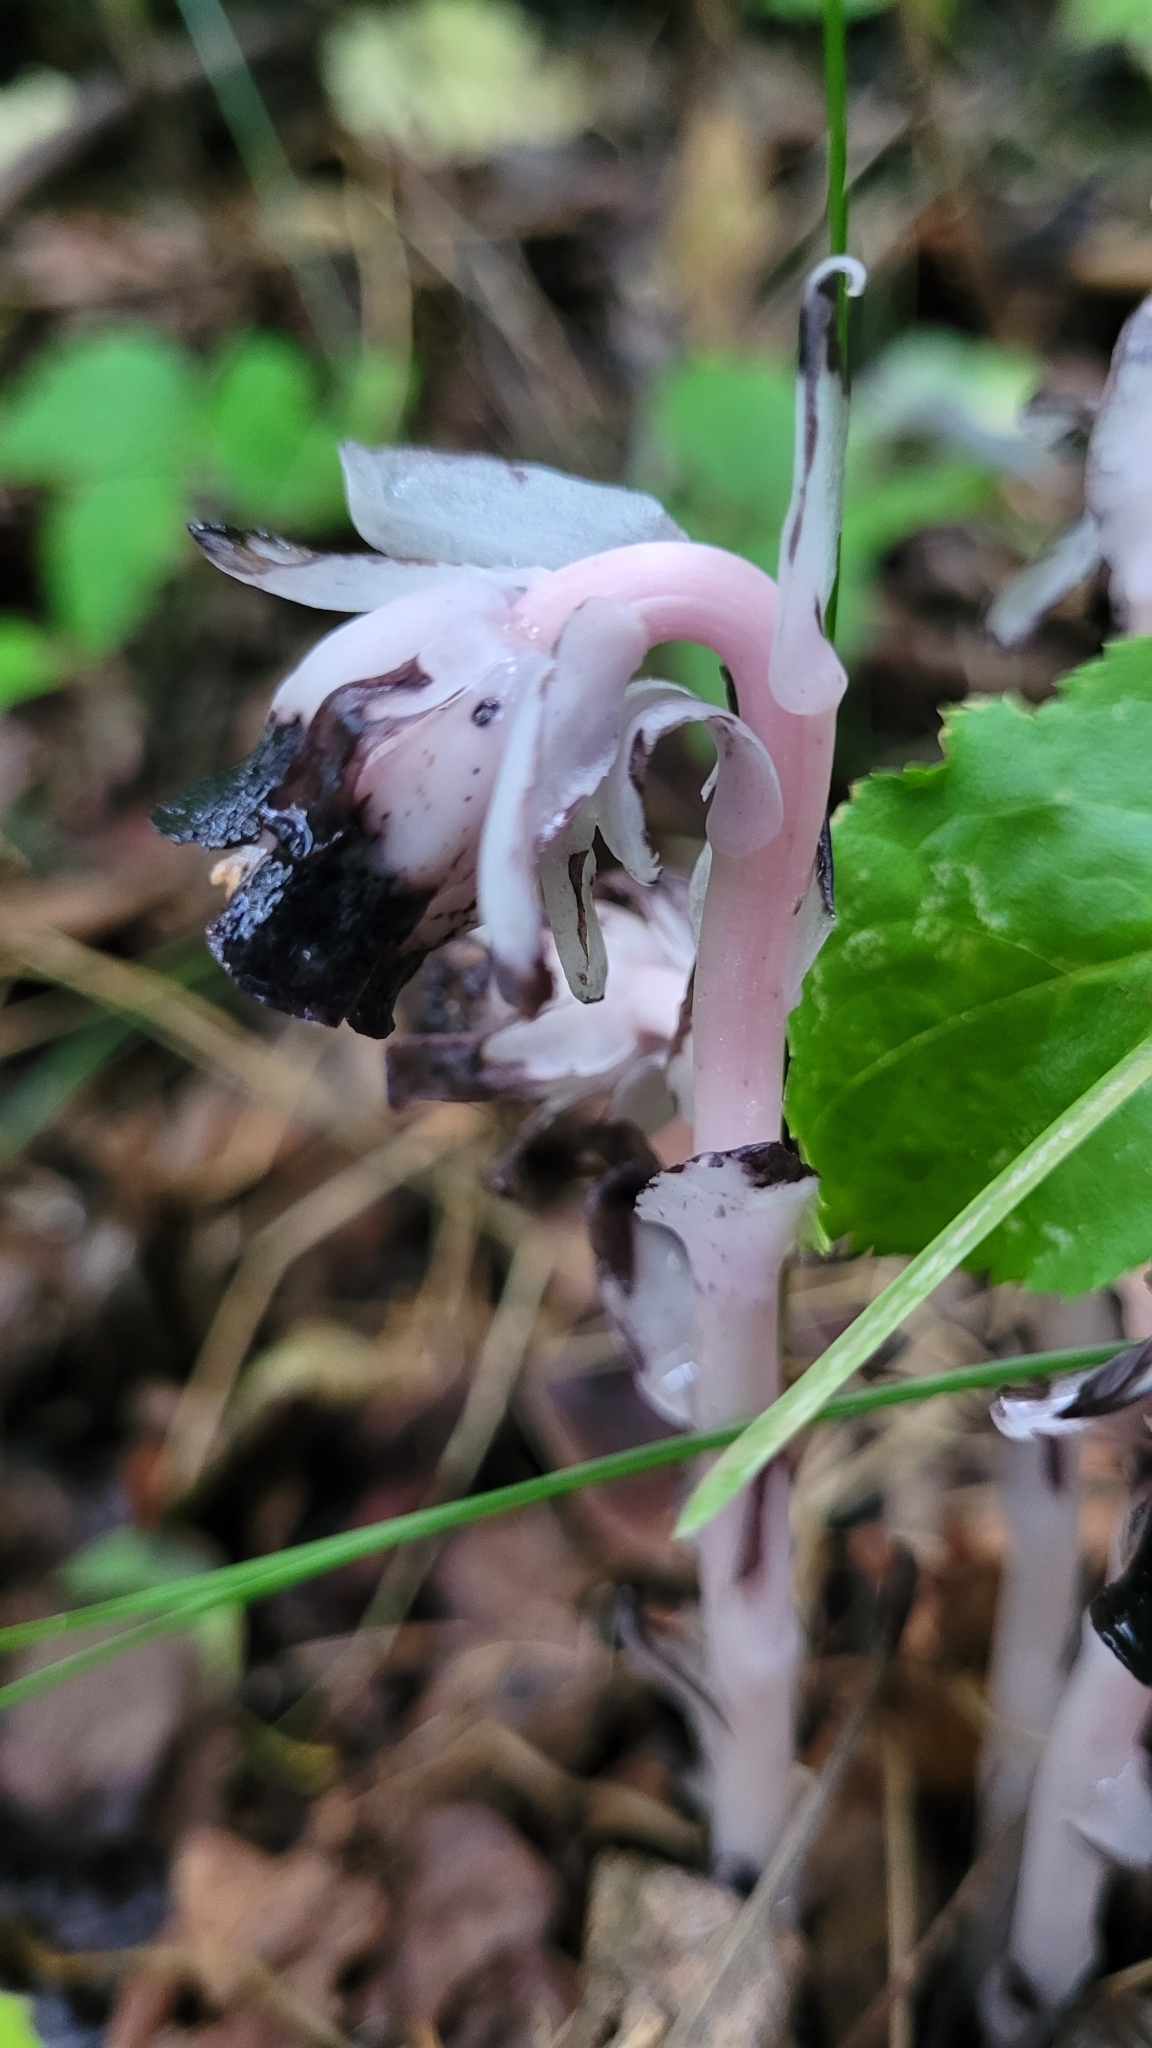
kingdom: Plantae
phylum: Tracheophyta
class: Magnoliopsida
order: Ericales
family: Ericaceae
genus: Monotropa
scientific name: Monotropa uniflora
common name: Convulsion root
